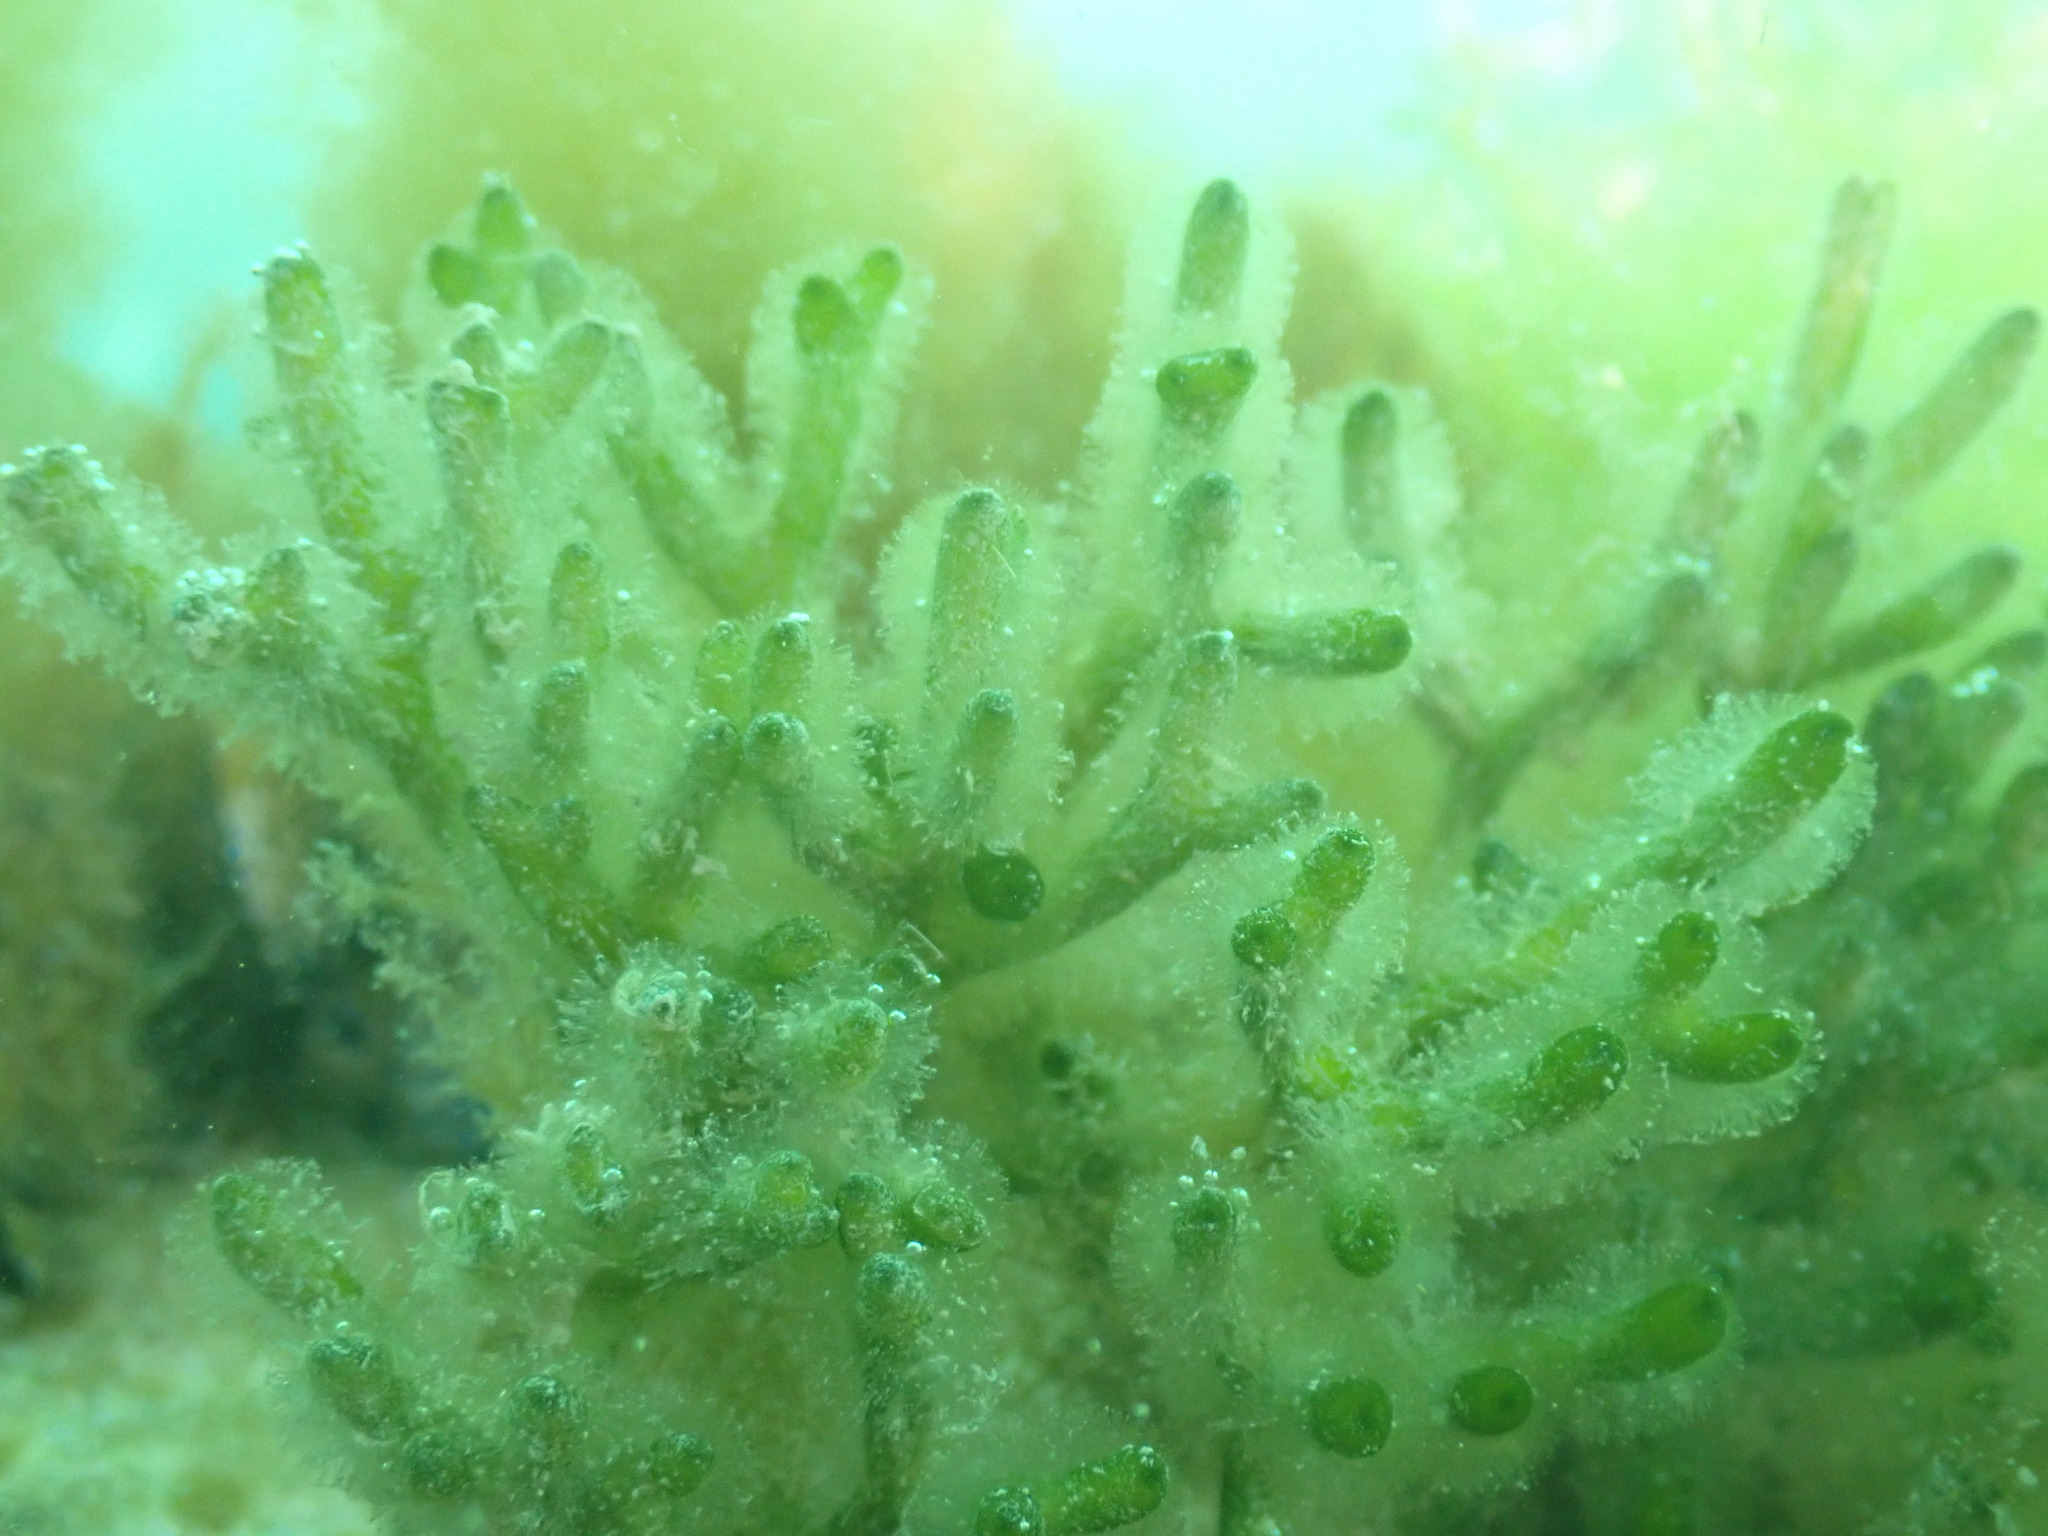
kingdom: Plantae
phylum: Chlorophyta
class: Ulvophyceae
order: Bryopsidales
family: Codiaceae
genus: Codium
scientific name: Codium fragile
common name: Dead man's fingers
